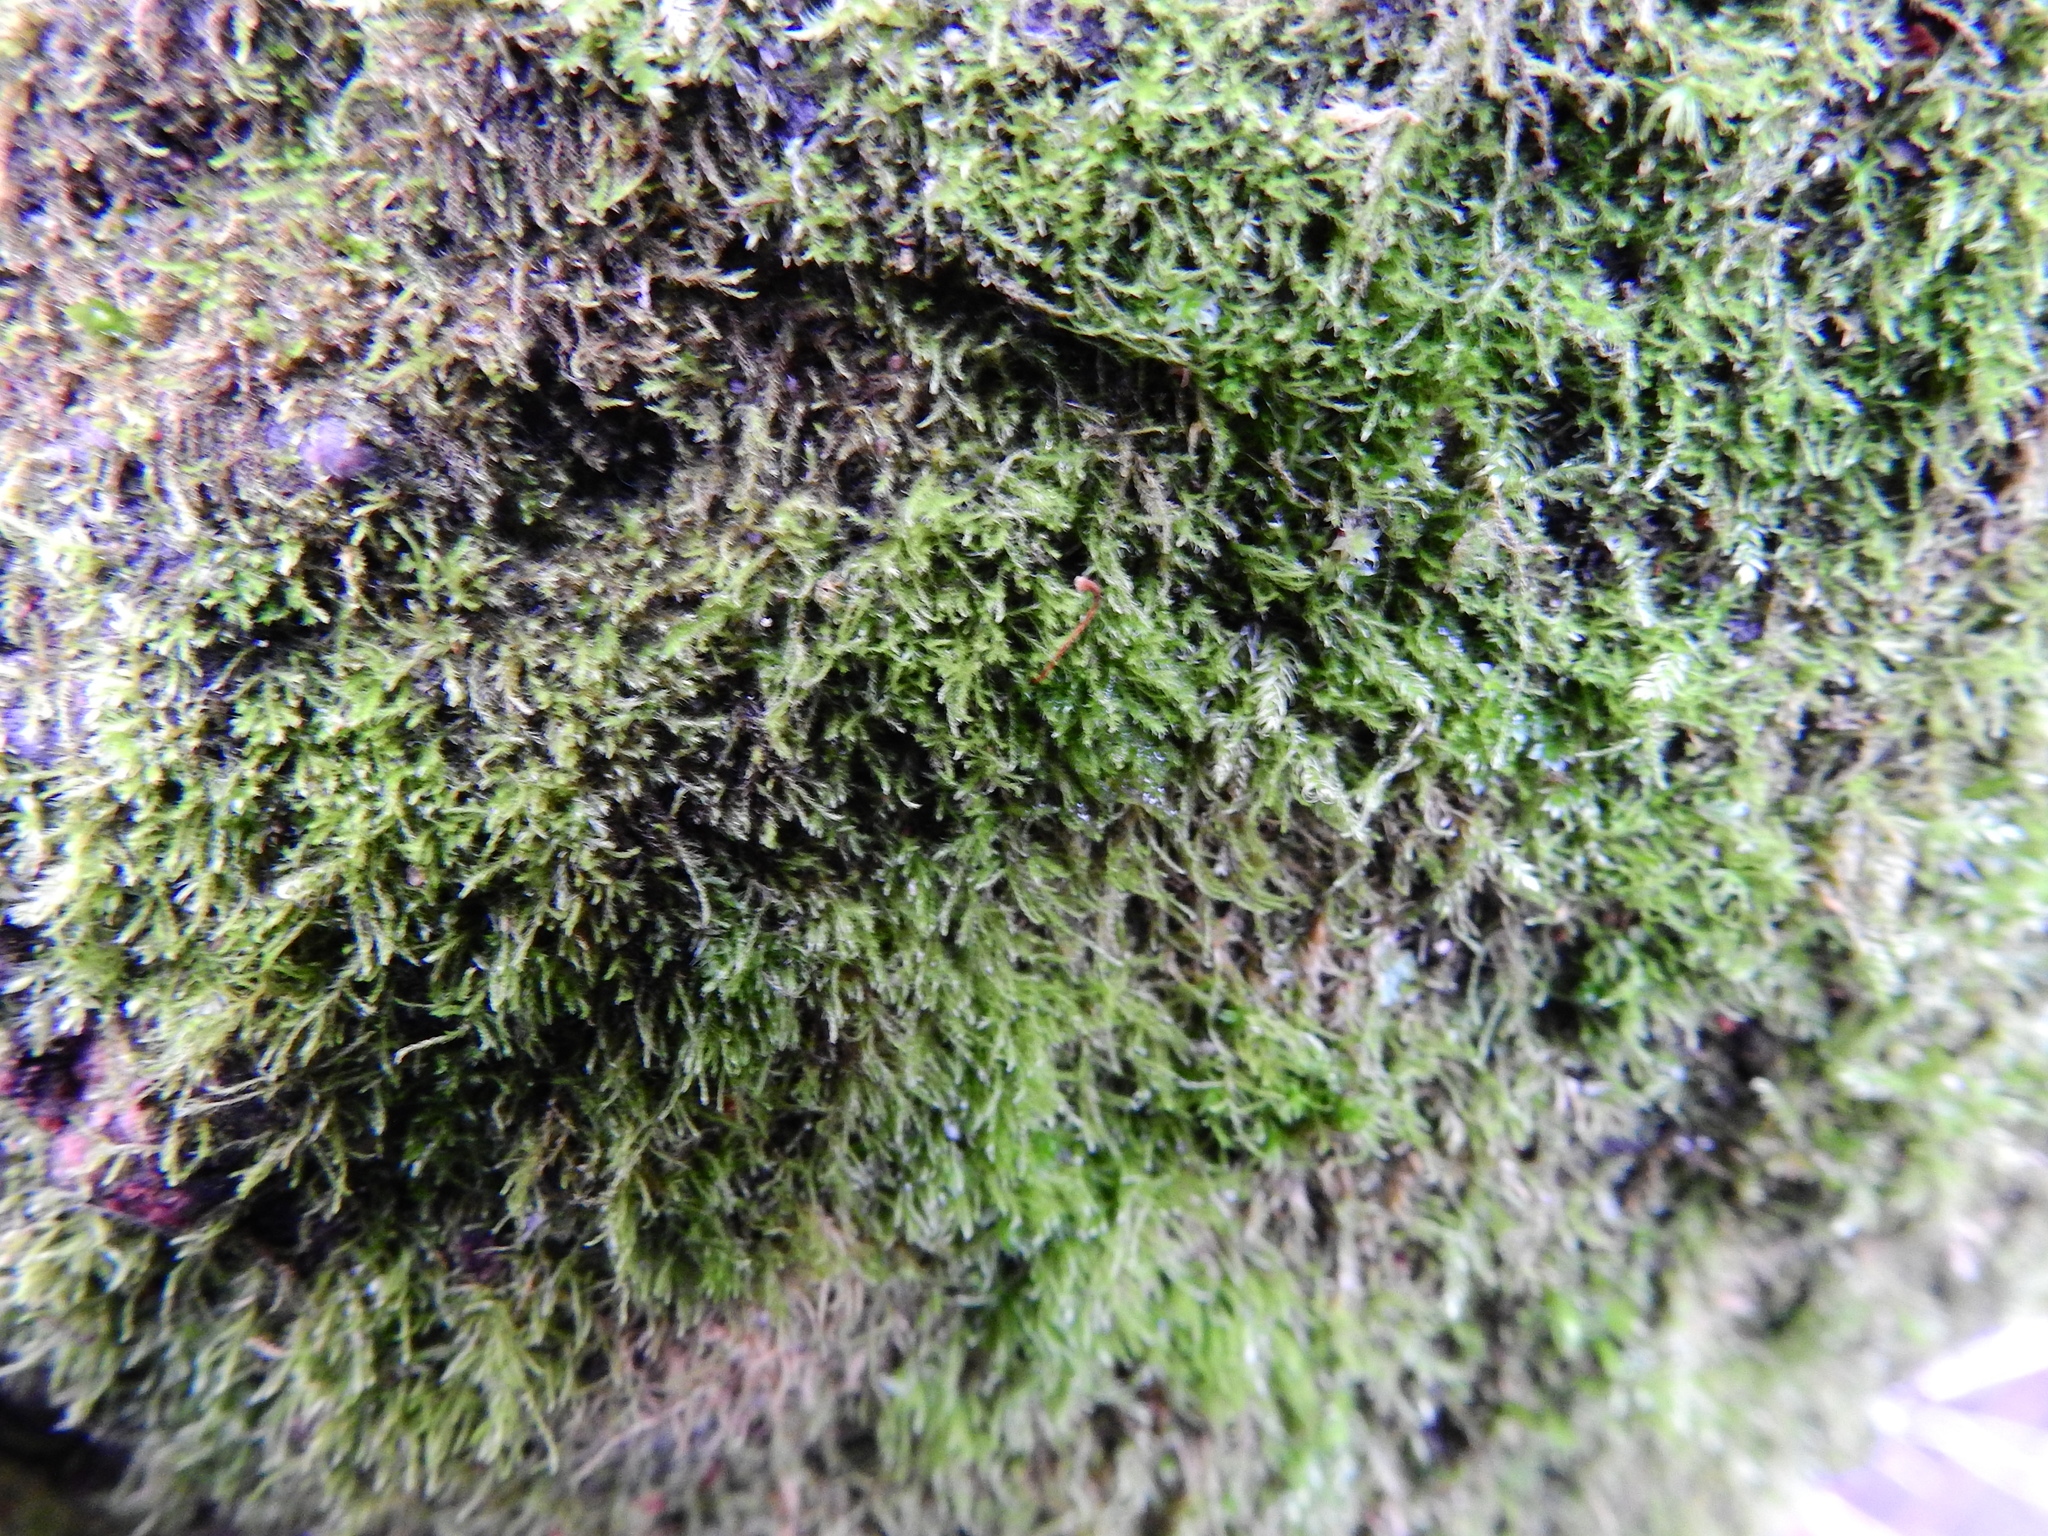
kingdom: Plantae
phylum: Bryophyta
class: Bryopsida
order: Hypnales
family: Amblystegiaceae
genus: Amblystegium
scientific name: Amblystegium serpens
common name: Jurkatzka's feather moss
